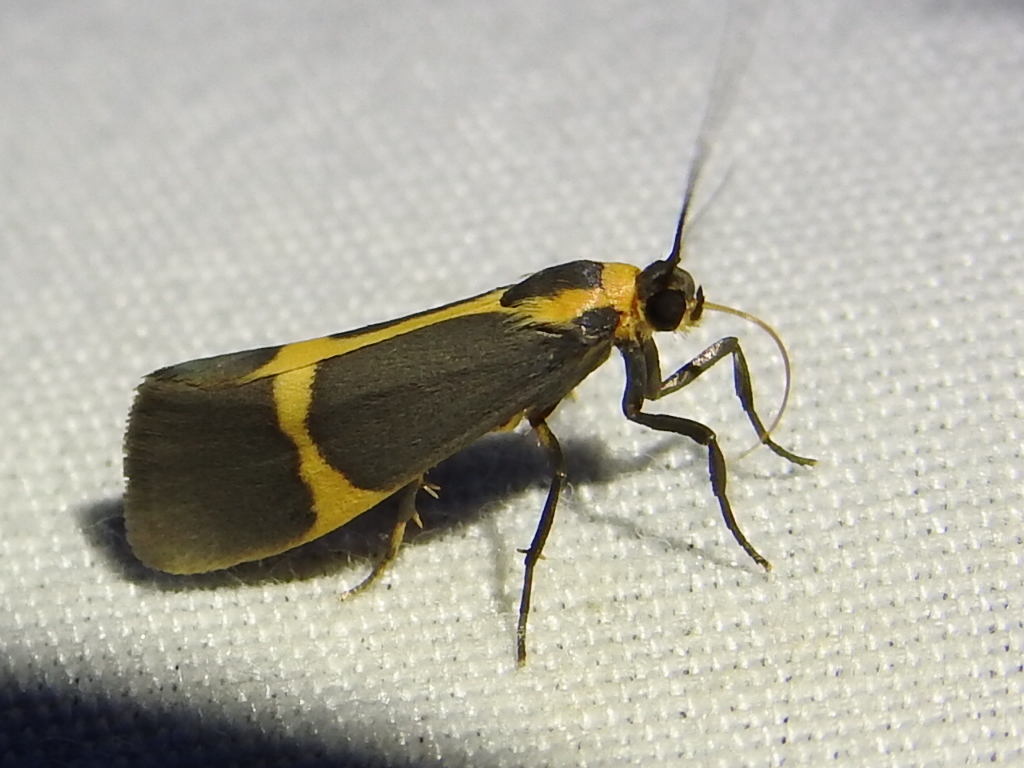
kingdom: Animalia
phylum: Arthropoda
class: Insecta
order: Lepidoptera
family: Erebidae
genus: Cisthene
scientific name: Cisthene tenuifascia
